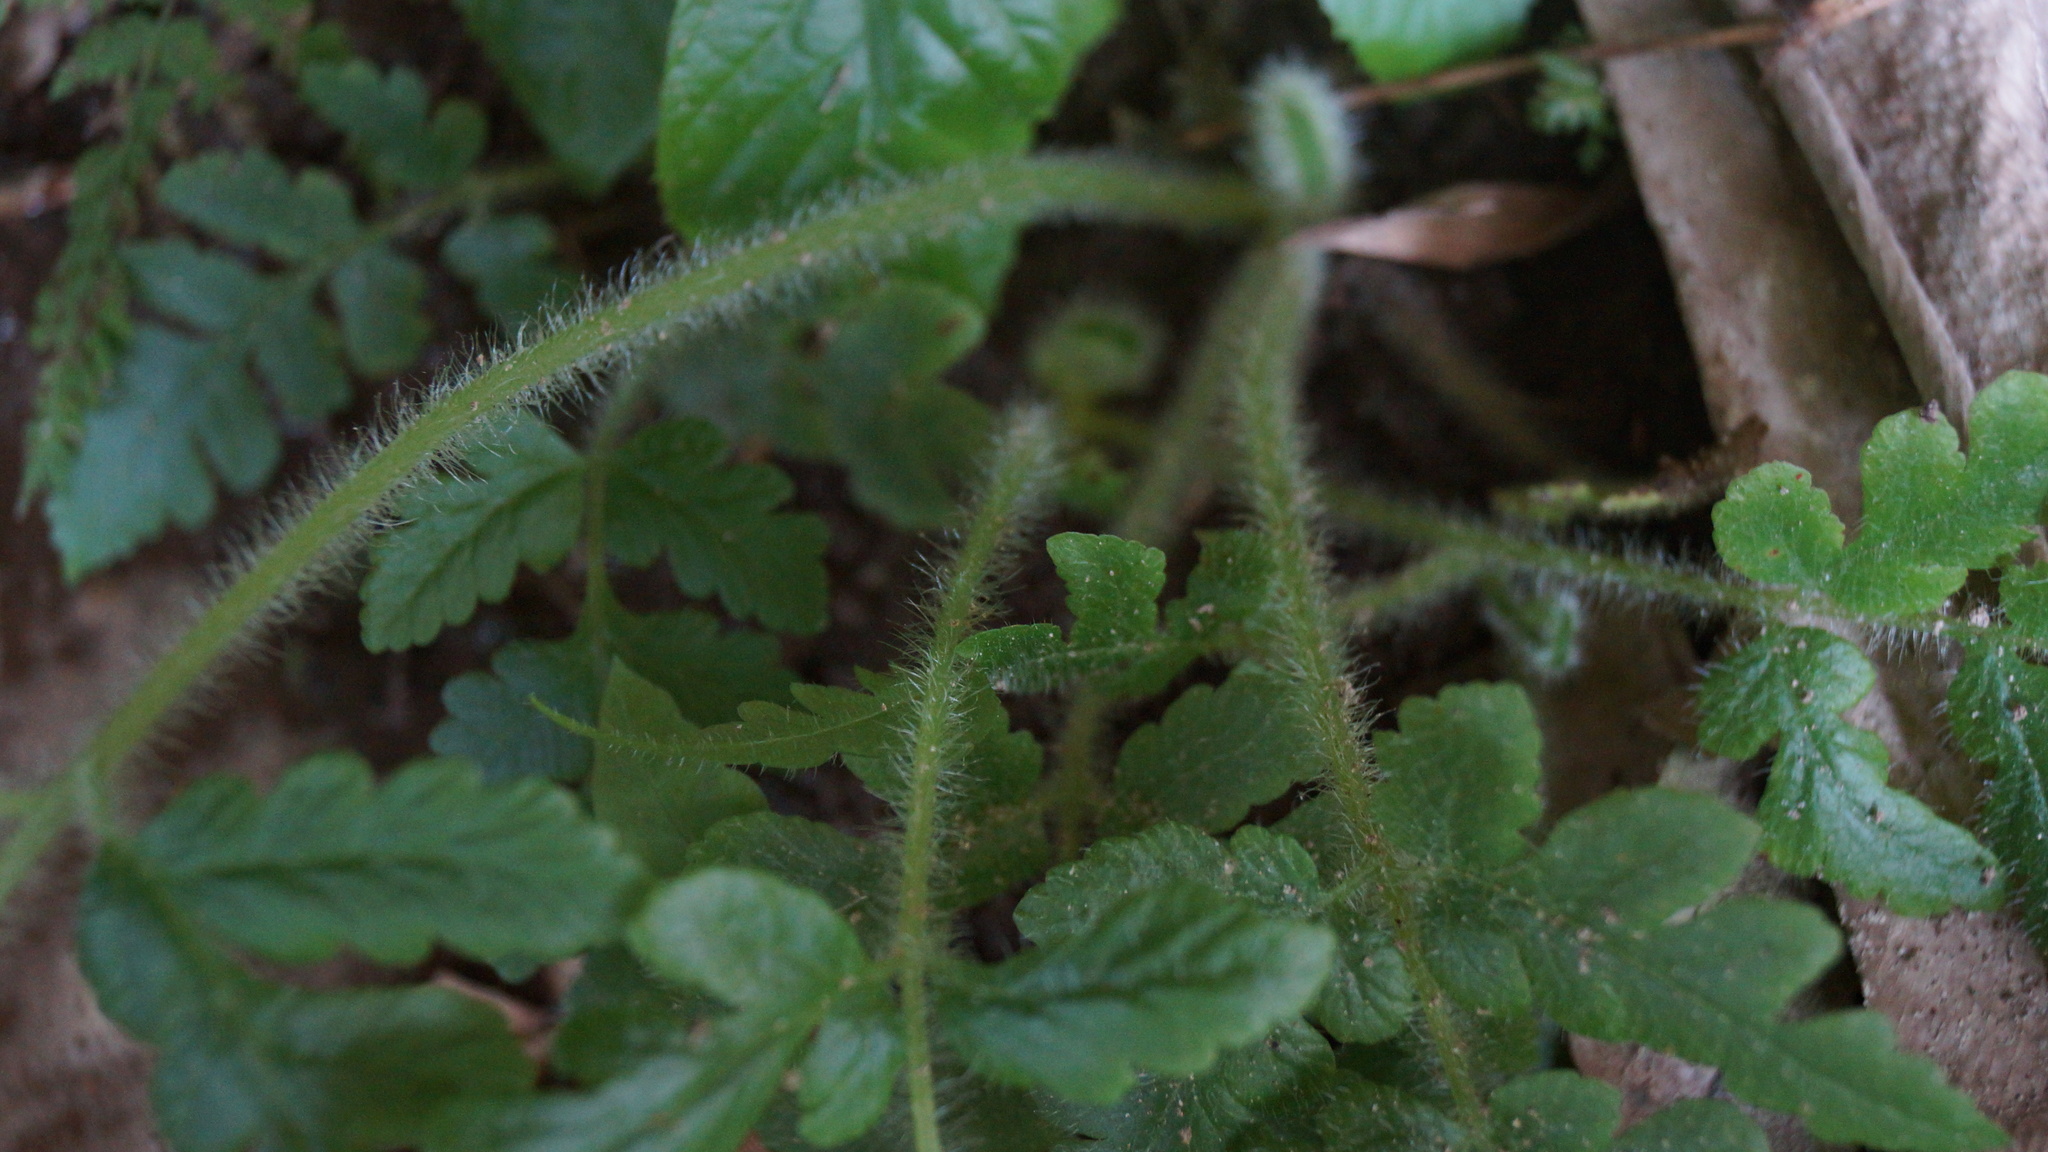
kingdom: Plantae
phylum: Tracheophyta
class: Polypodiopsida
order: Polypodiales
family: Lonchitidaceae
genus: Lonchitis
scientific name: Lonchitis hirsuta
